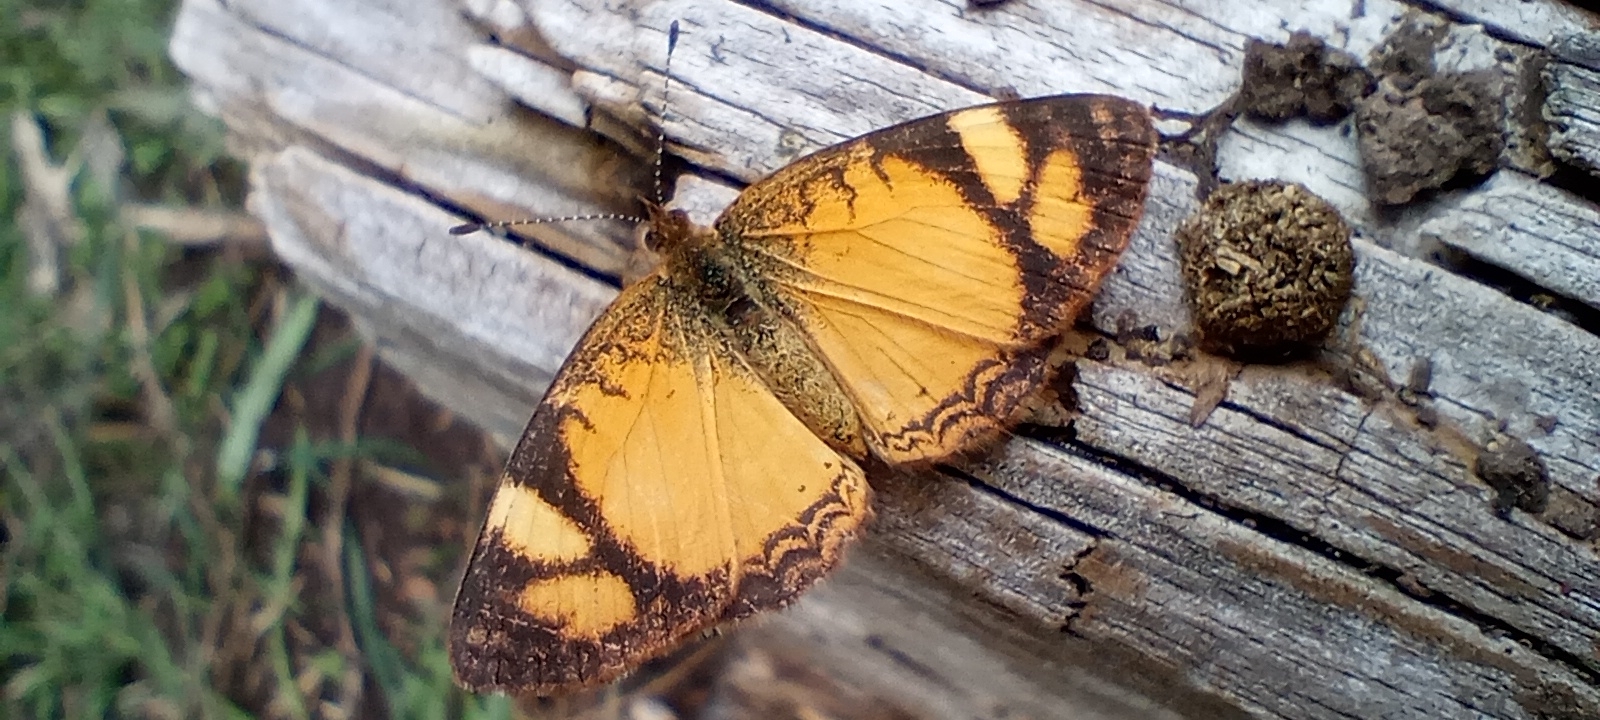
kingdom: Animalia
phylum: Arthropoda
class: Insecta
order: Lepidoptera
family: Nymphalidae
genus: Tegosa
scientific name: Tegosa claudina
